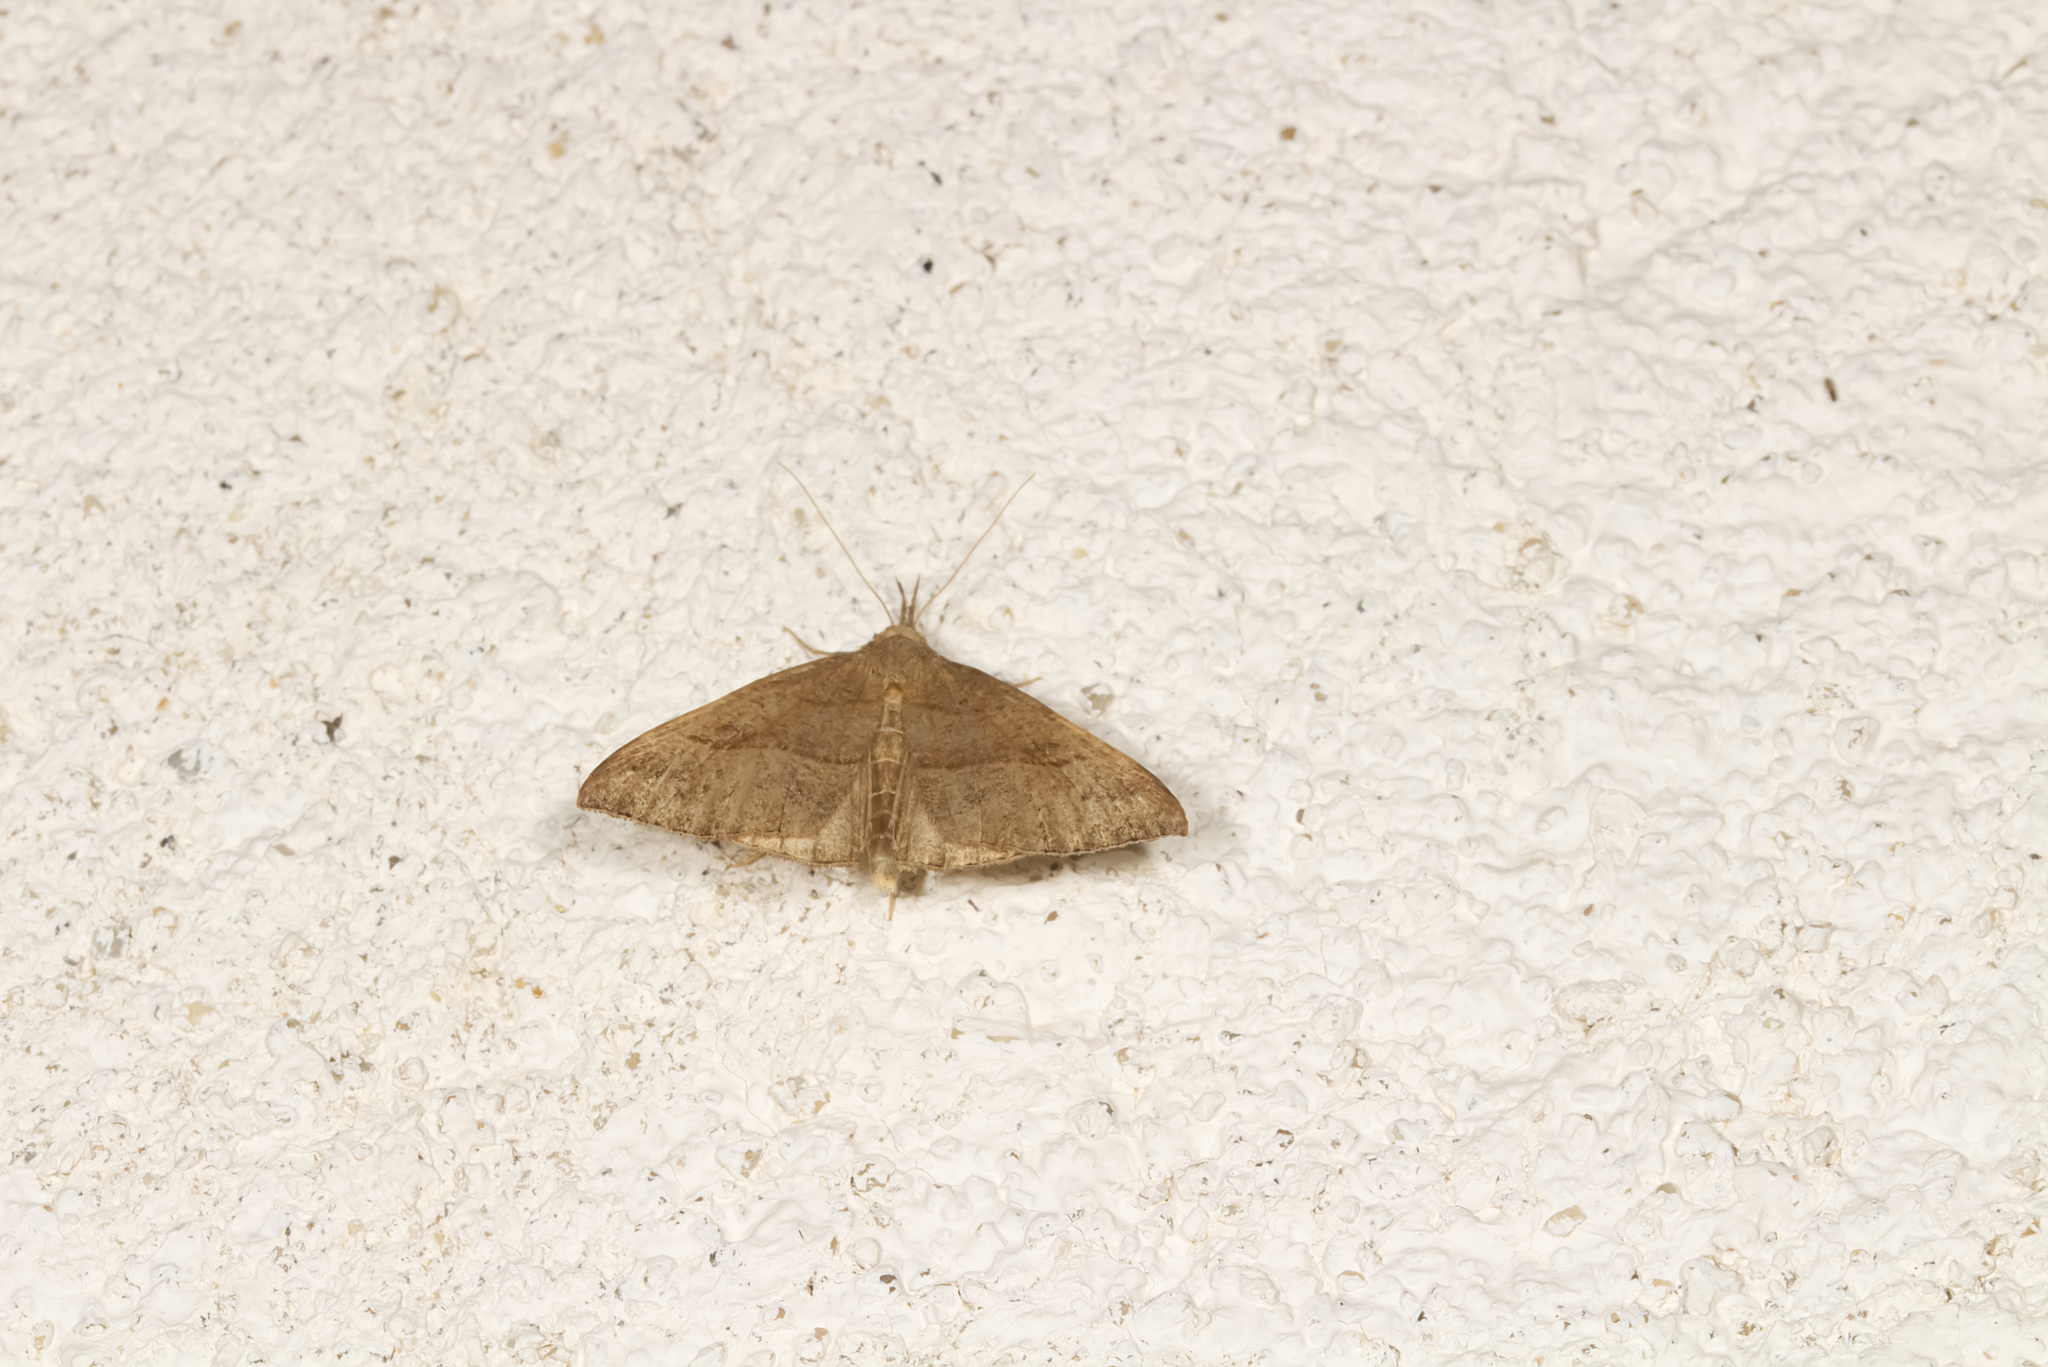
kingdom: Animalia
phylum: Arthropoda
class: Insecta
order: Lepidoptera
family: Erebidae
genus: Hypena
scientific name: Hypena proboscidalis
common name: Snout
